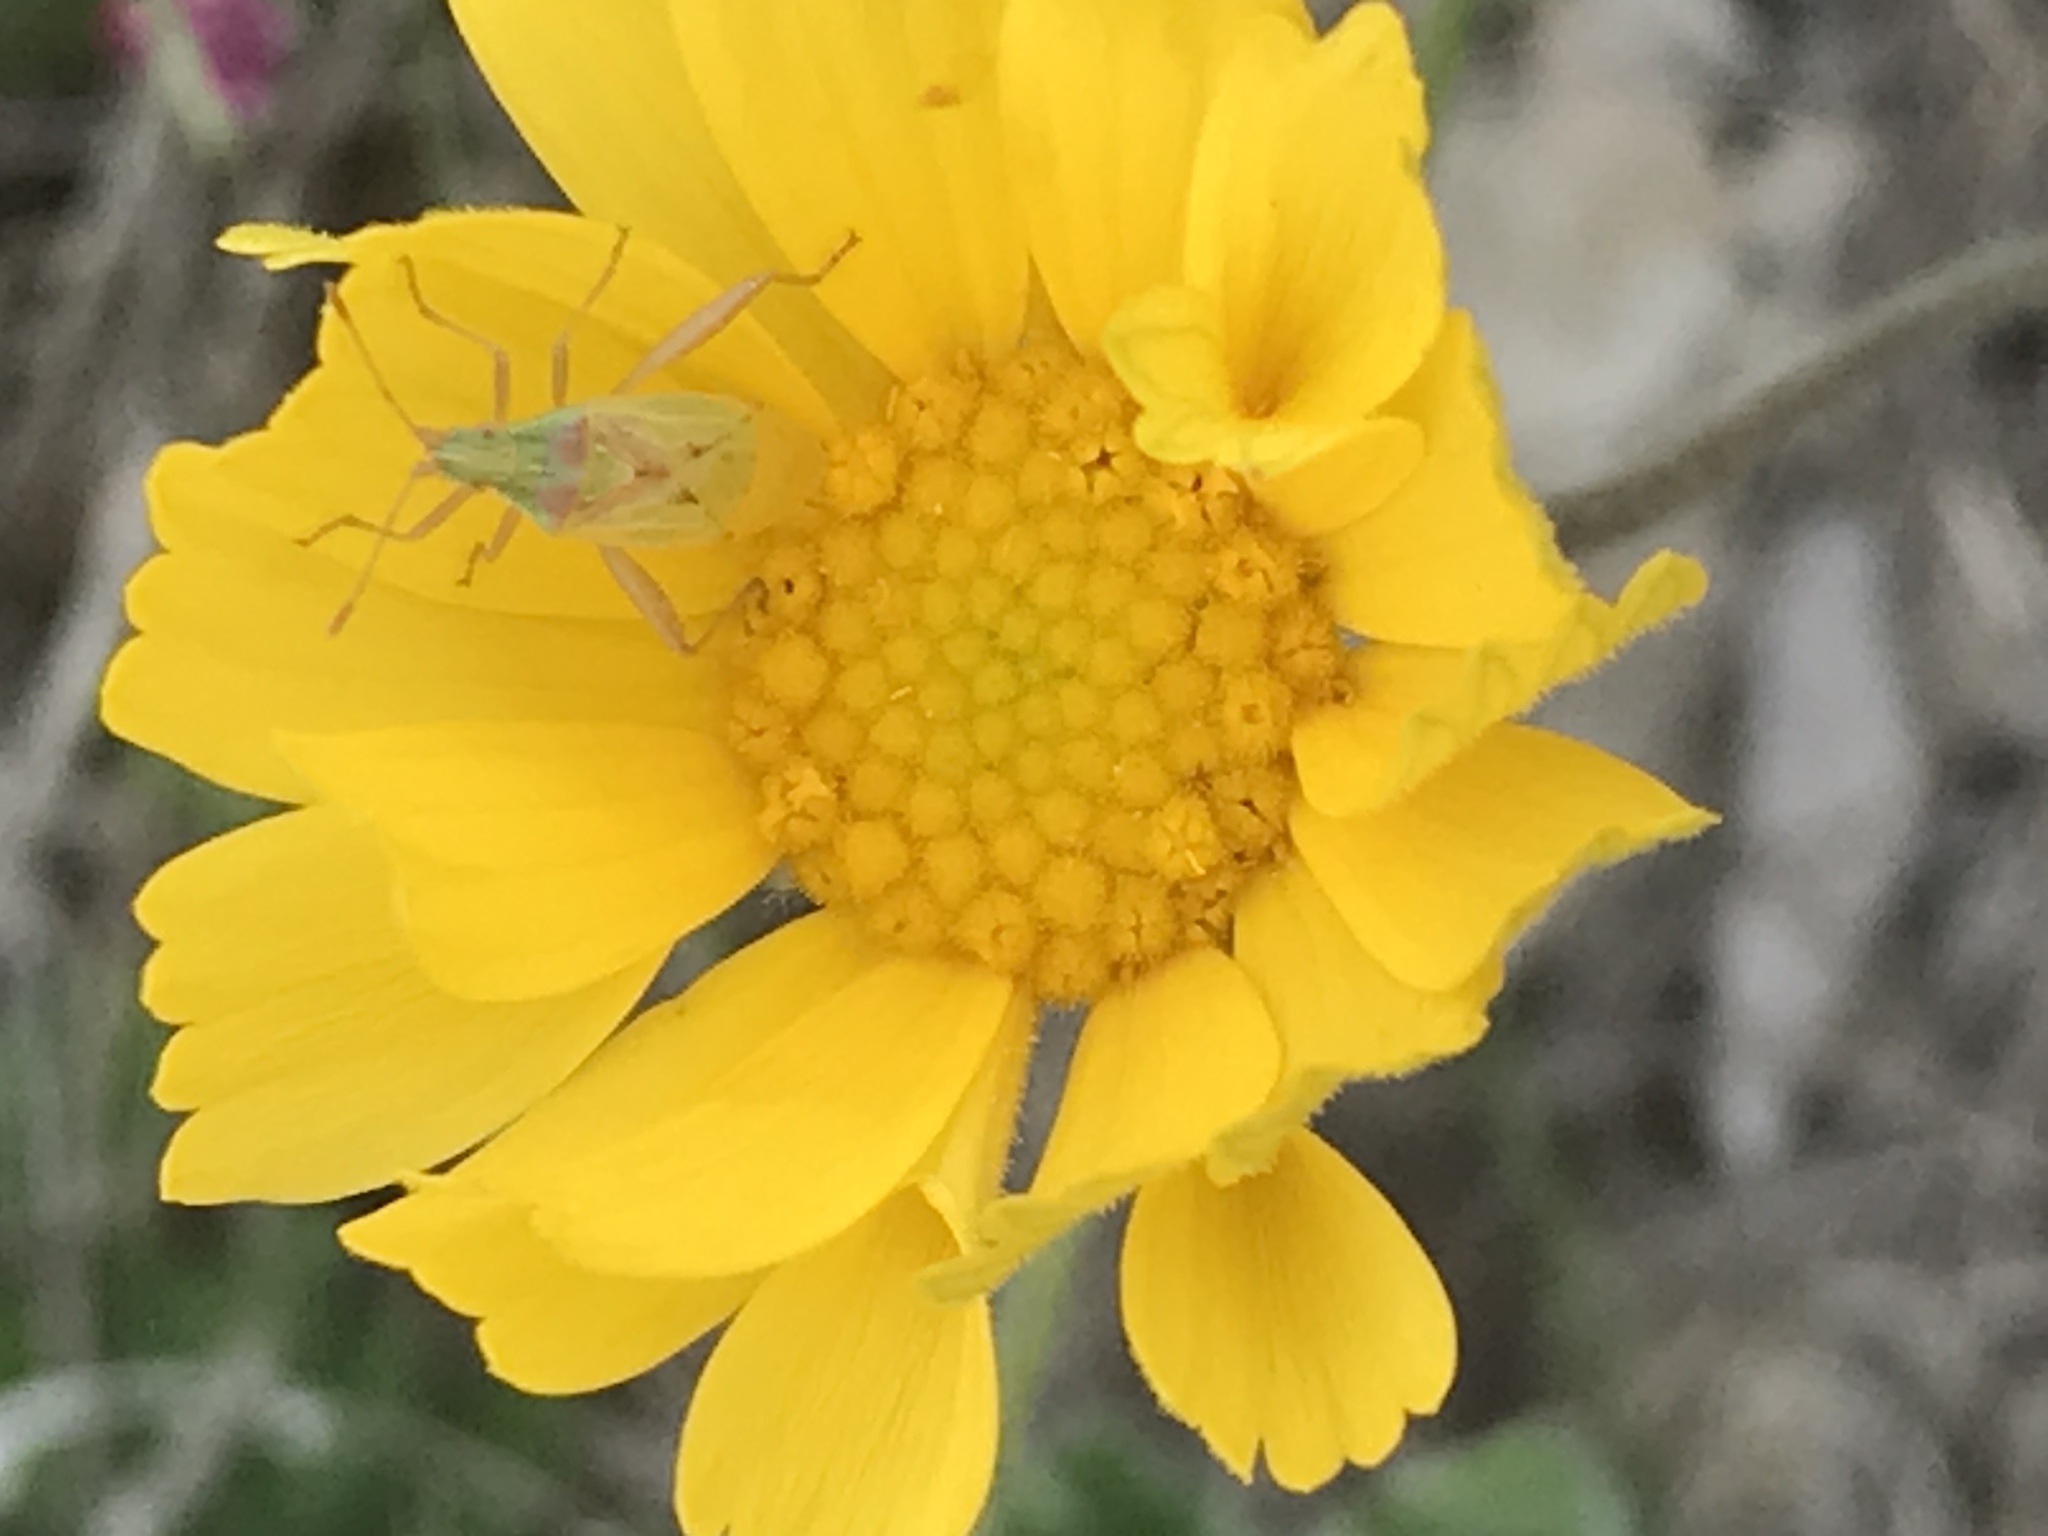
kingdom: Animalia
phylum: Arthropoda
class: Insecta
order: Hemiptera
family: Rhopalidae
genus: Harmostes
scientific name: Harmostes reflexulus
